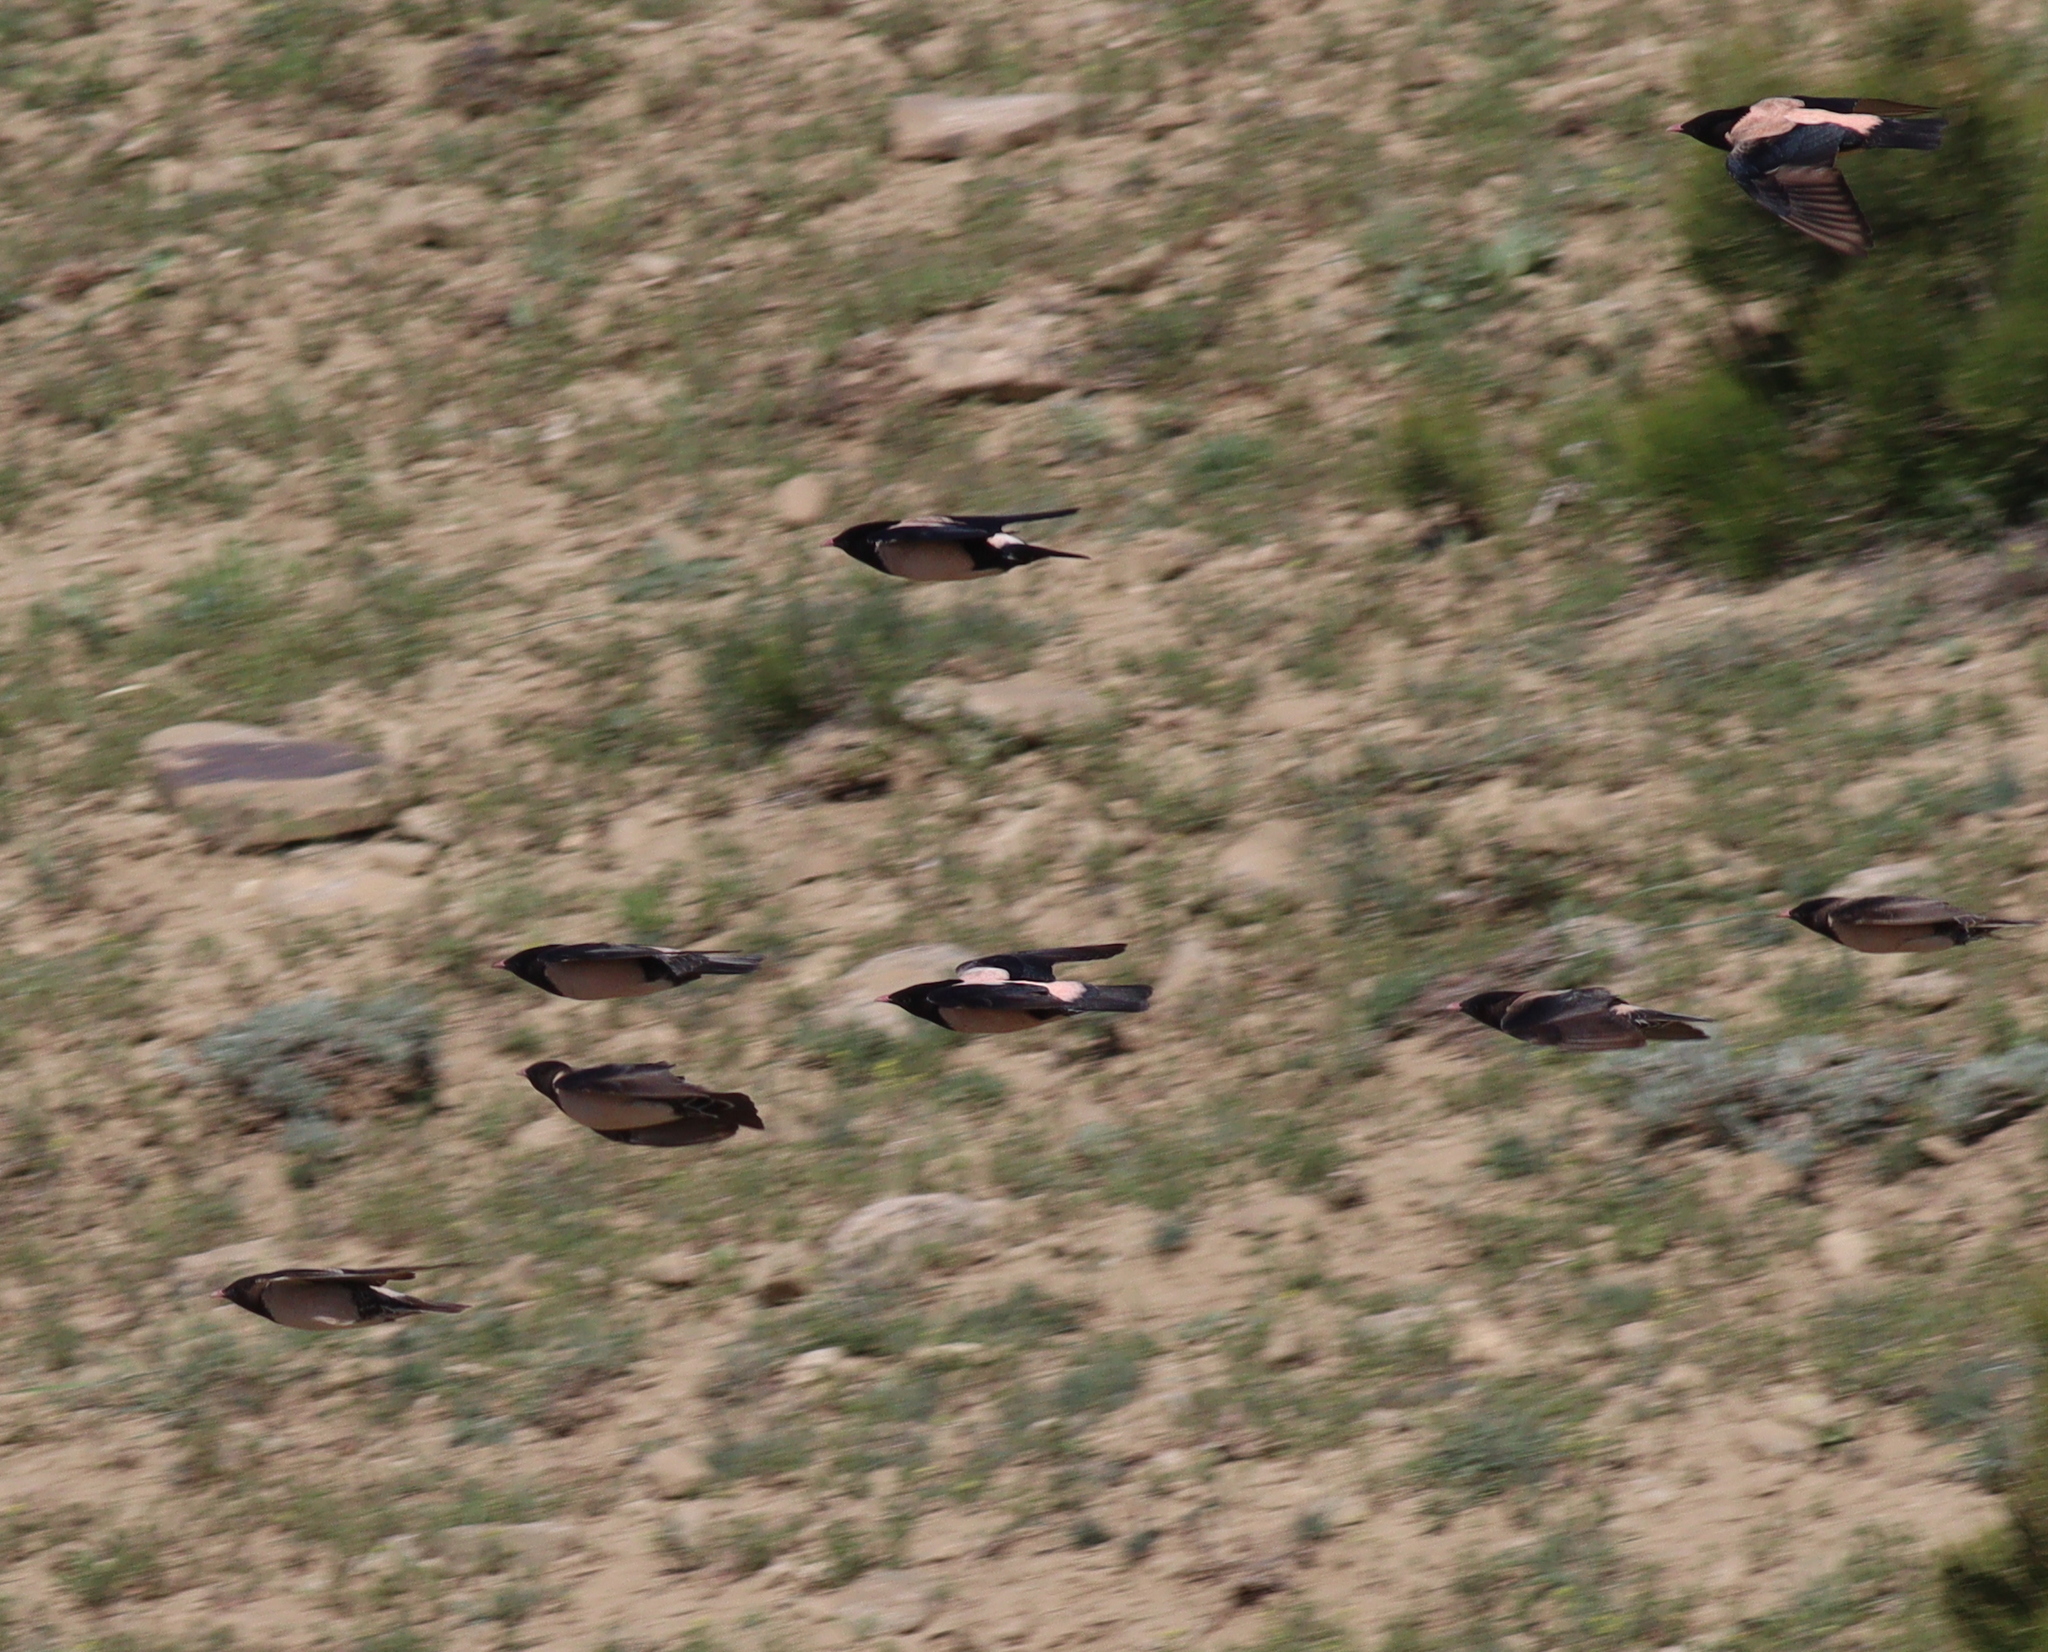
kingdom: Animalia
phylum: Chordata
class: Aves
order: Passeriformes
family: Sturnidae
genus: Pastor
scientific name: Pastor roseus
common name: Rosy starling
